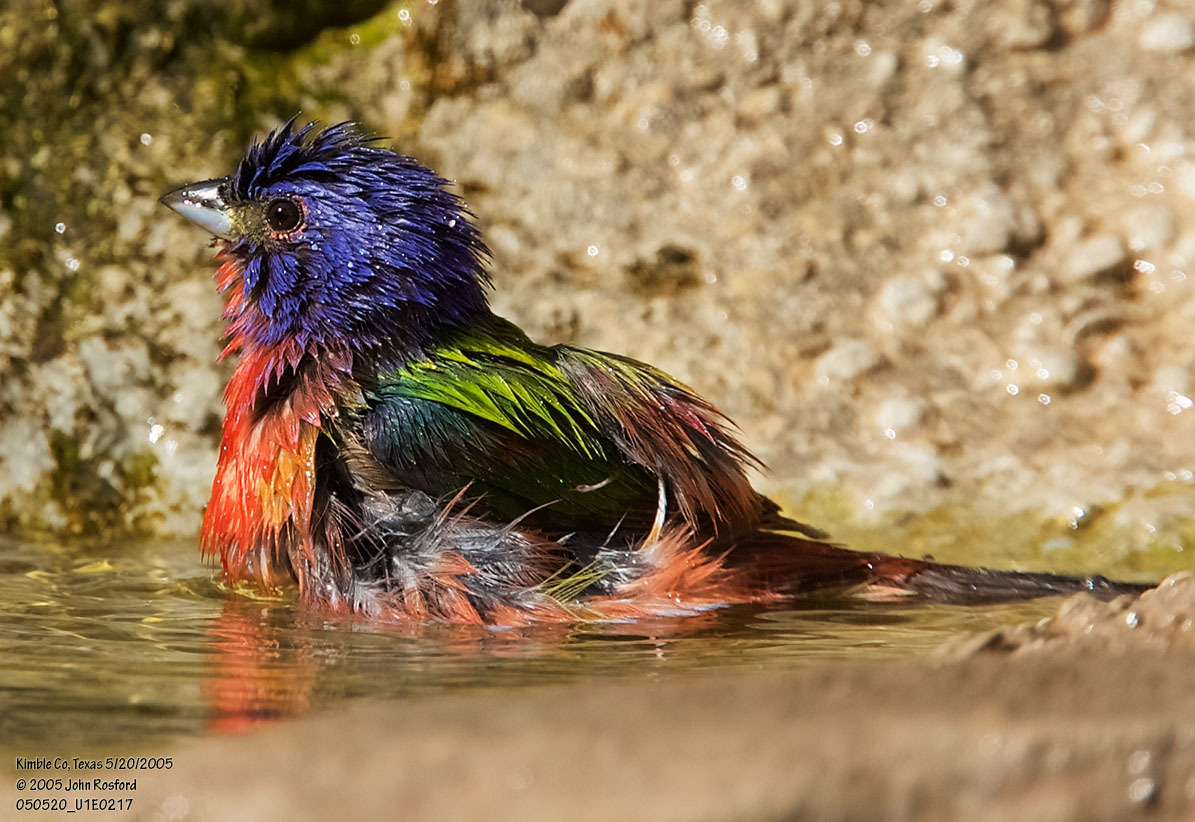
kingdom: Animalia
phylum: Chordata
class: Aves
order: Passeriformes
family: Cardinalidae
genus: Passerina
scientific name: Passerina ciris
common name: Painted bunting
